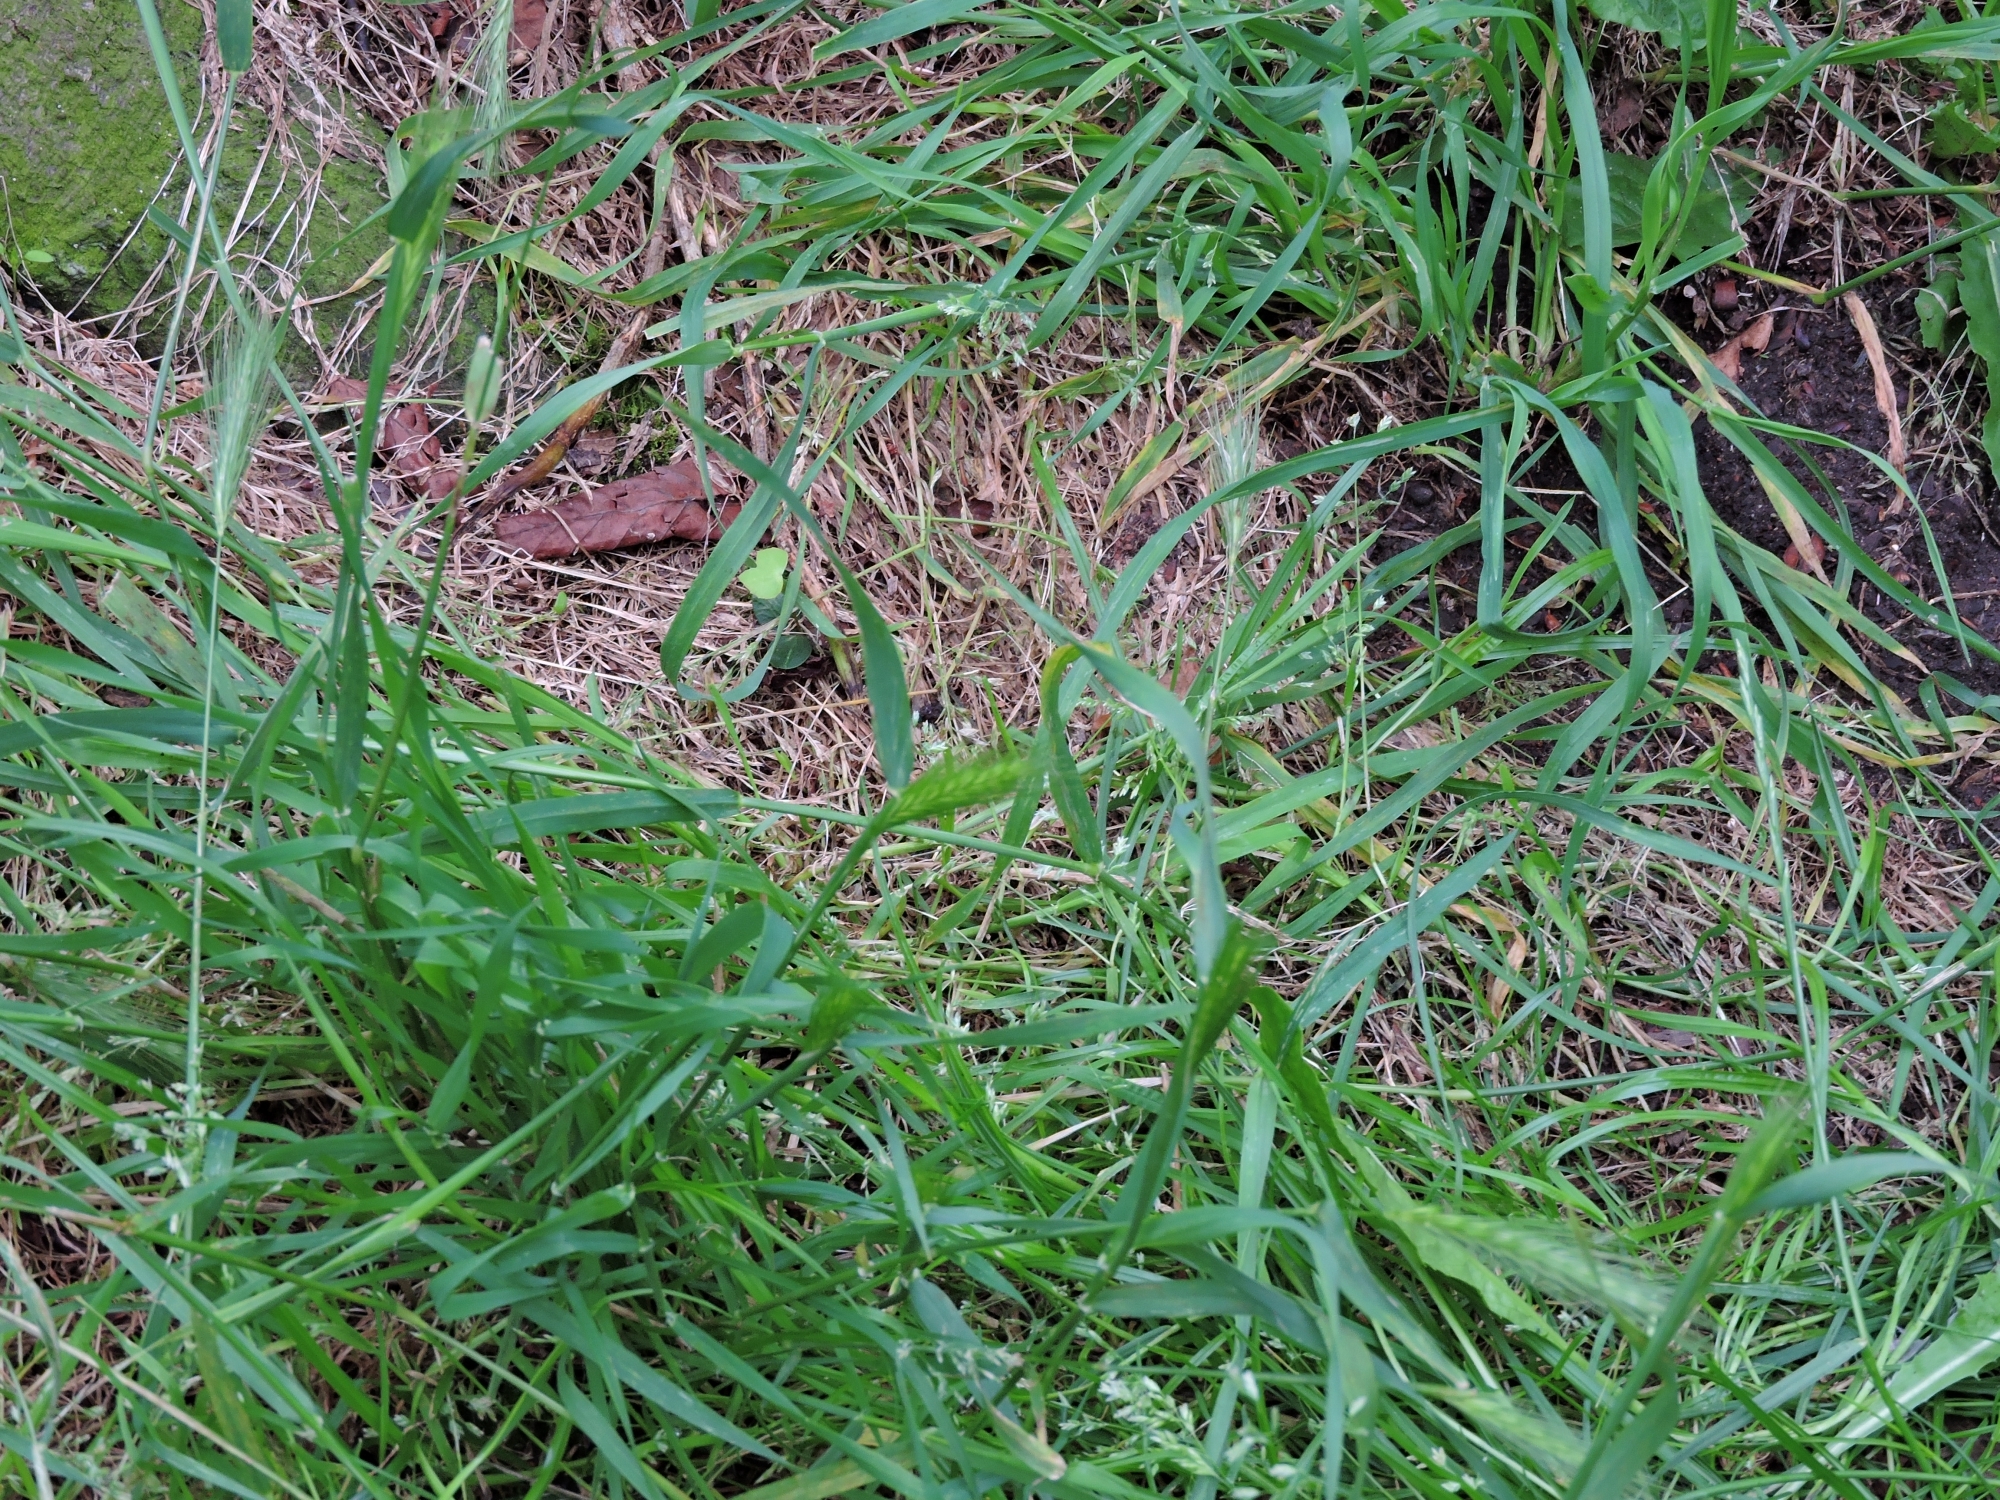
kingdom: Plantae
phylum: Tracheophyta
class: Liliopsida
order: Poales
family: Poaceae
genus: Hordeum
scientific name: Hordeum murinum
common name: Wall barley
